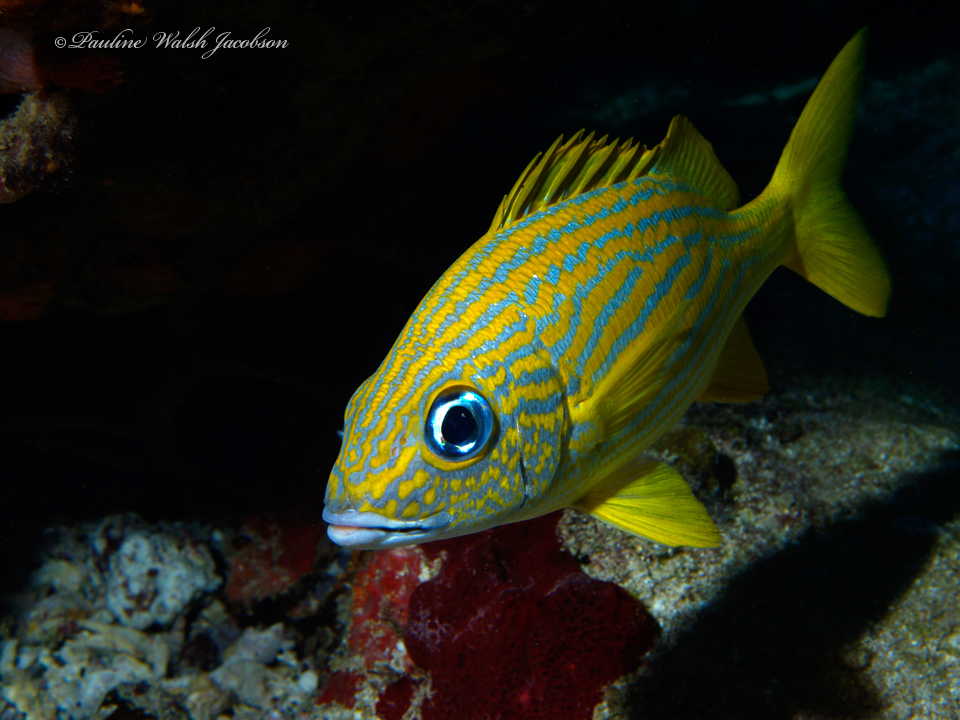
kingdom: Animalia
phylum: Chordata
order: Perciformes
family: Haemulidae
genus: Haemulon
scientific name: Haemulon flavolineatum
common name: French grunt
